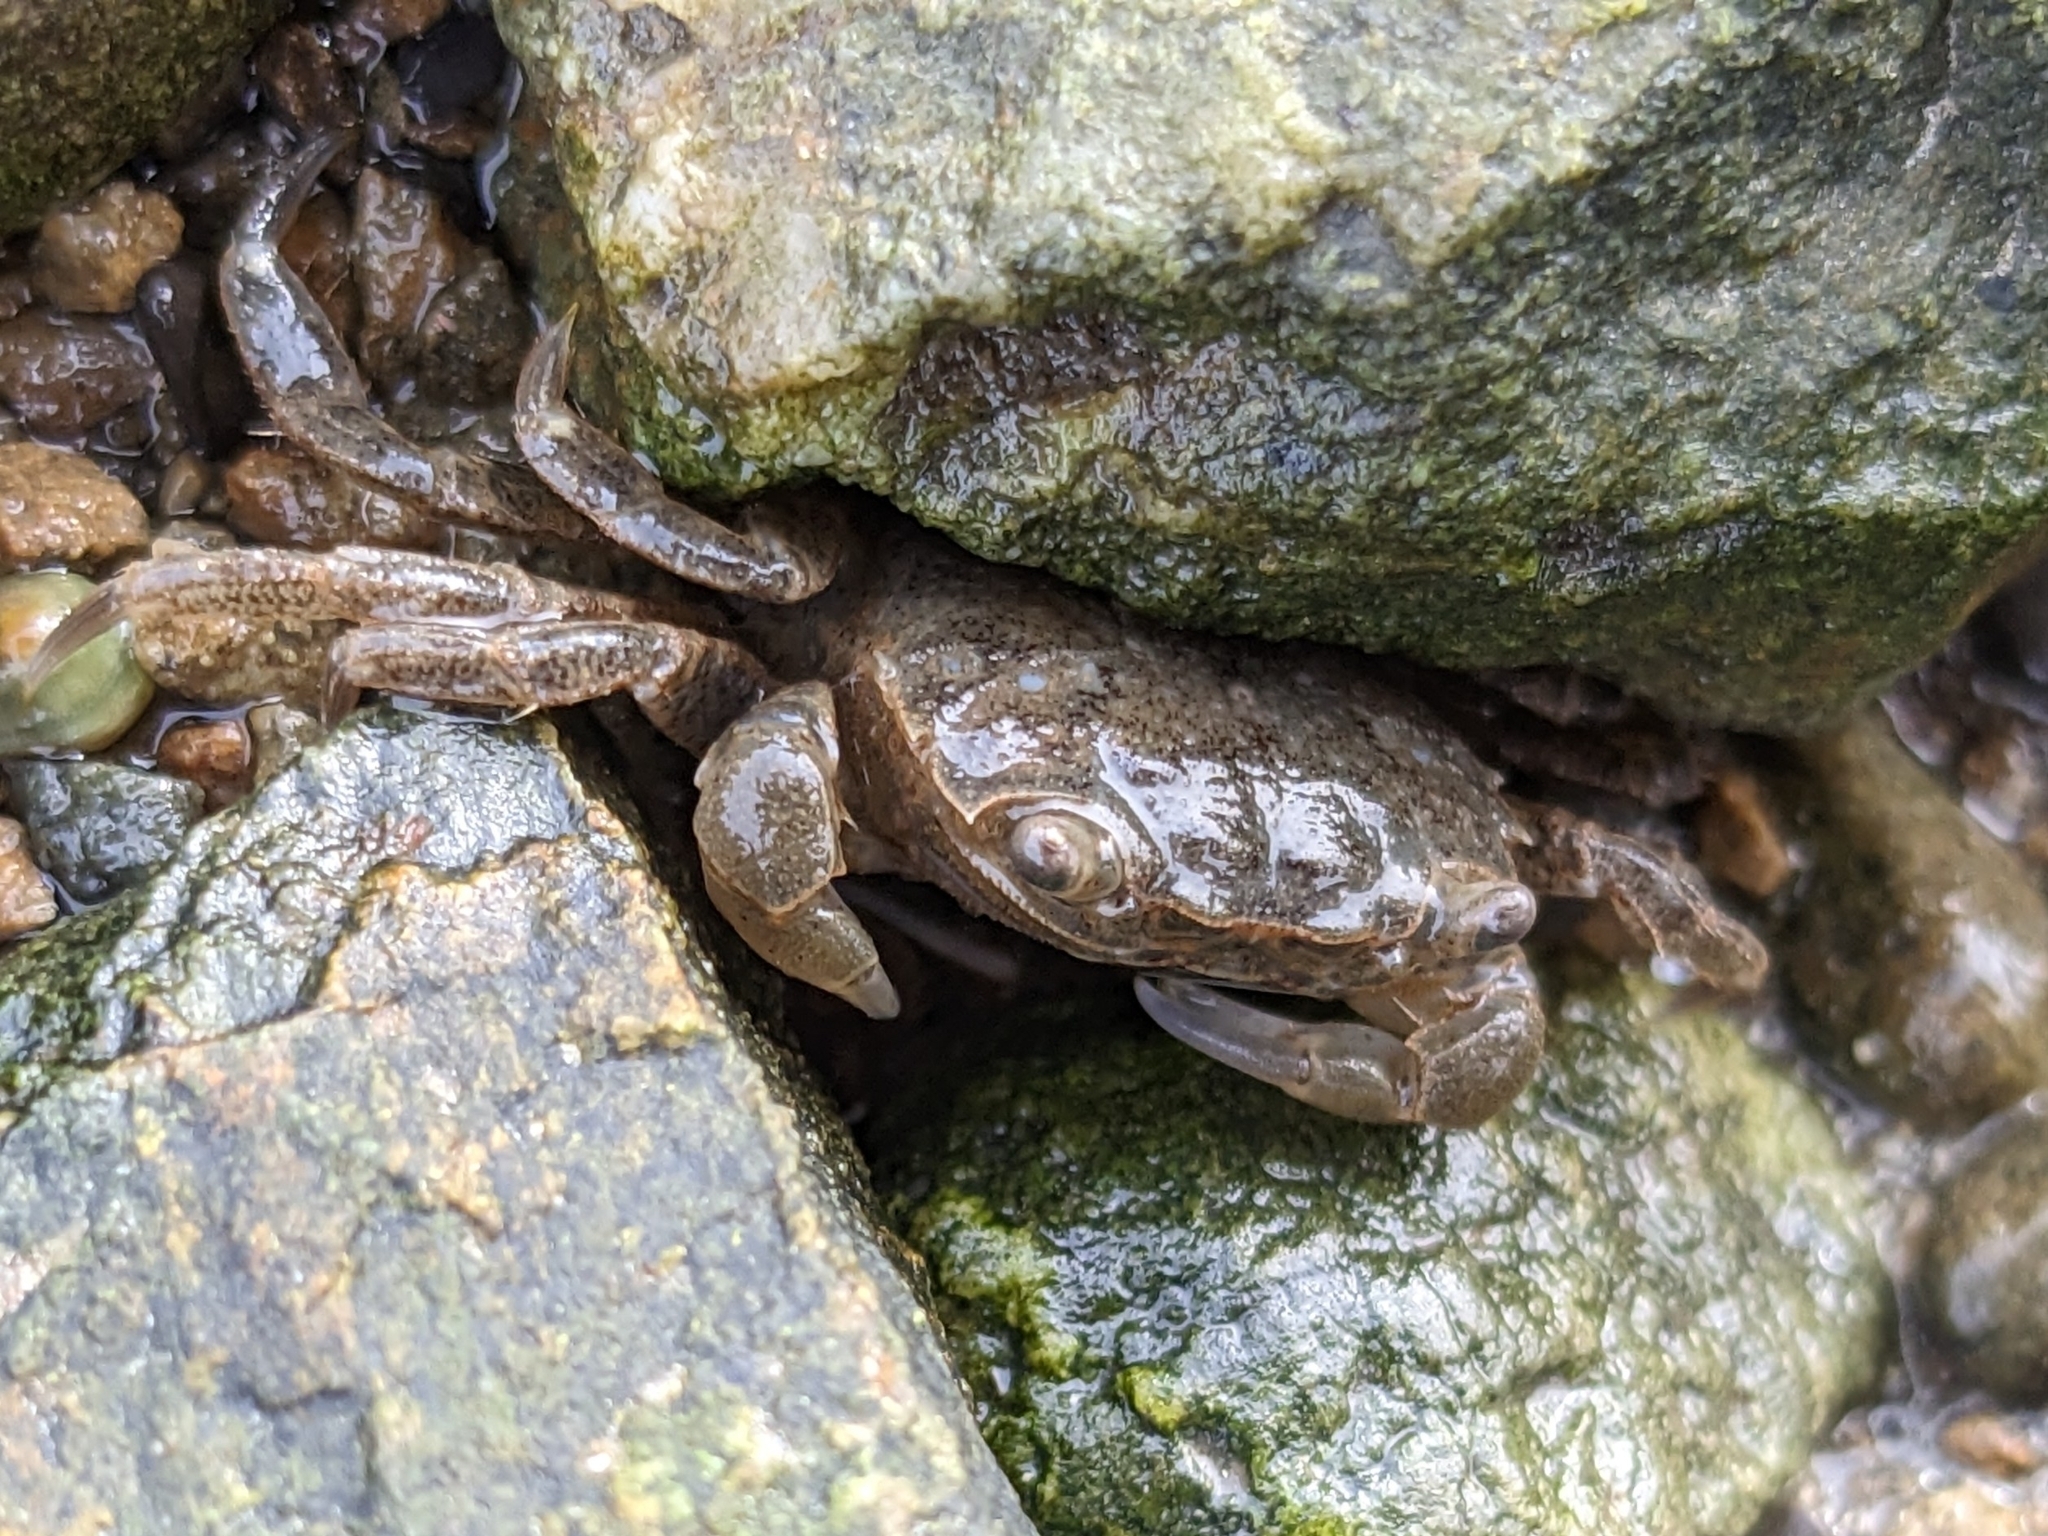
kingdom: Animalia
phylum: Arthropoda
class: Malacostraca
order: Decapoda
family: Varunidae
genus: Hemigrapsus
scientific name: Hemigrapsus oregonensis
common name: Yellow shore crab
